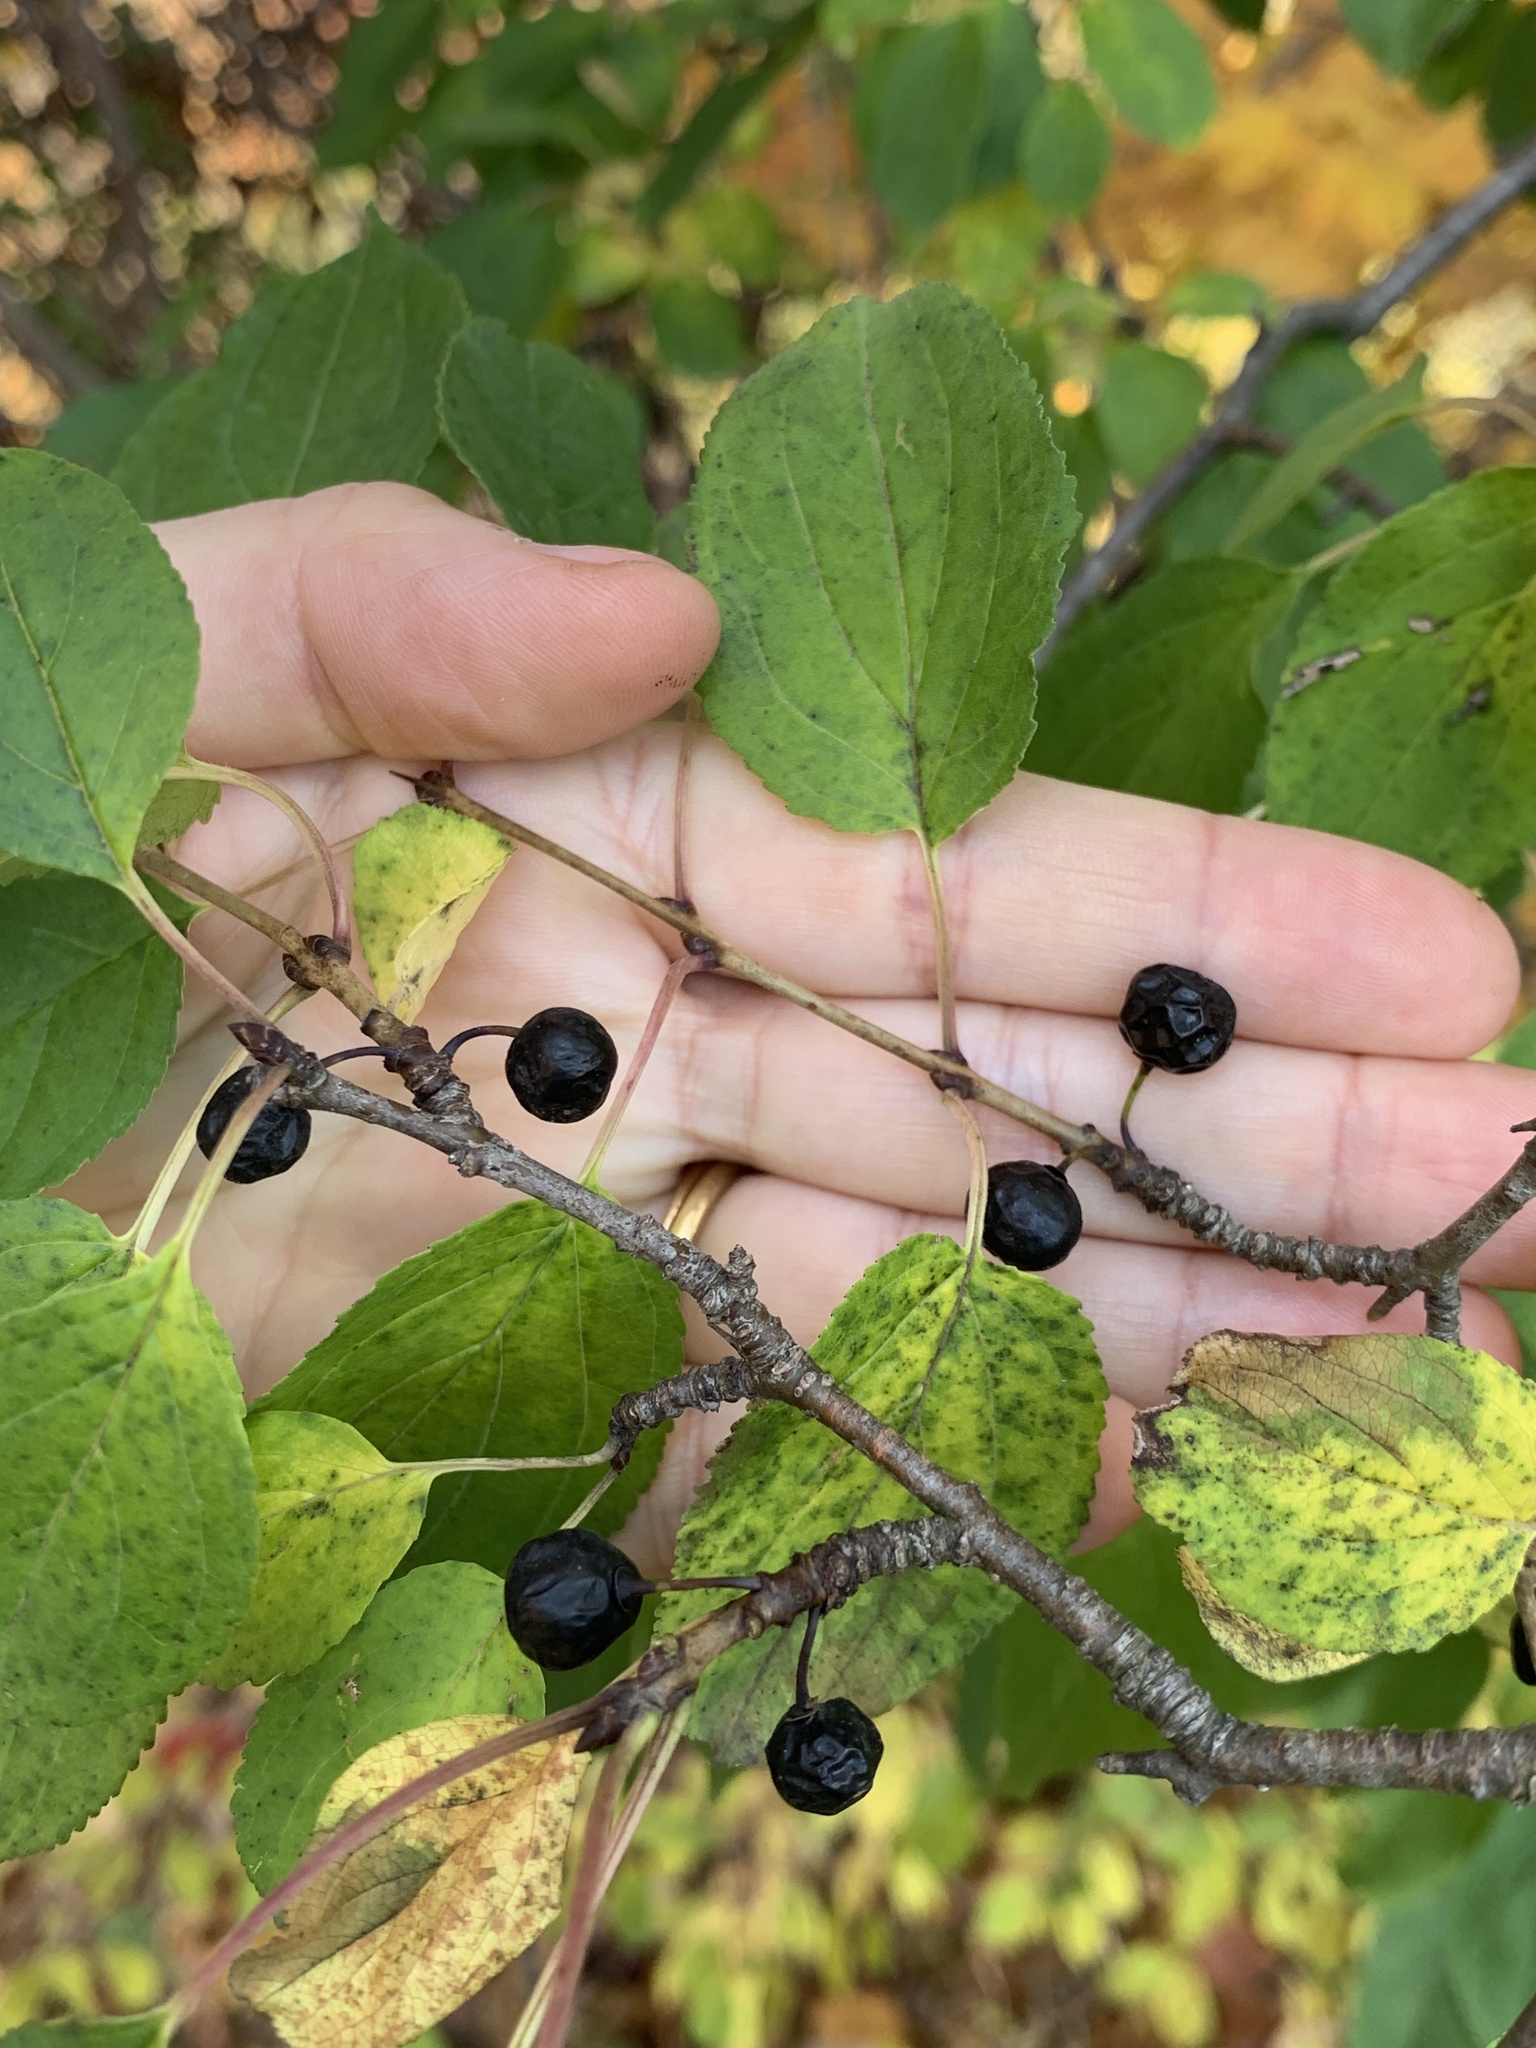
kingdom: Plantae
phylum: Tracheophyta
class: Magnoliopsida
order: Rosales
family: Rhamnaceae
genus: Rhamnus
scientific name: Rhamnus cathartica
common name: Common buckthorn
